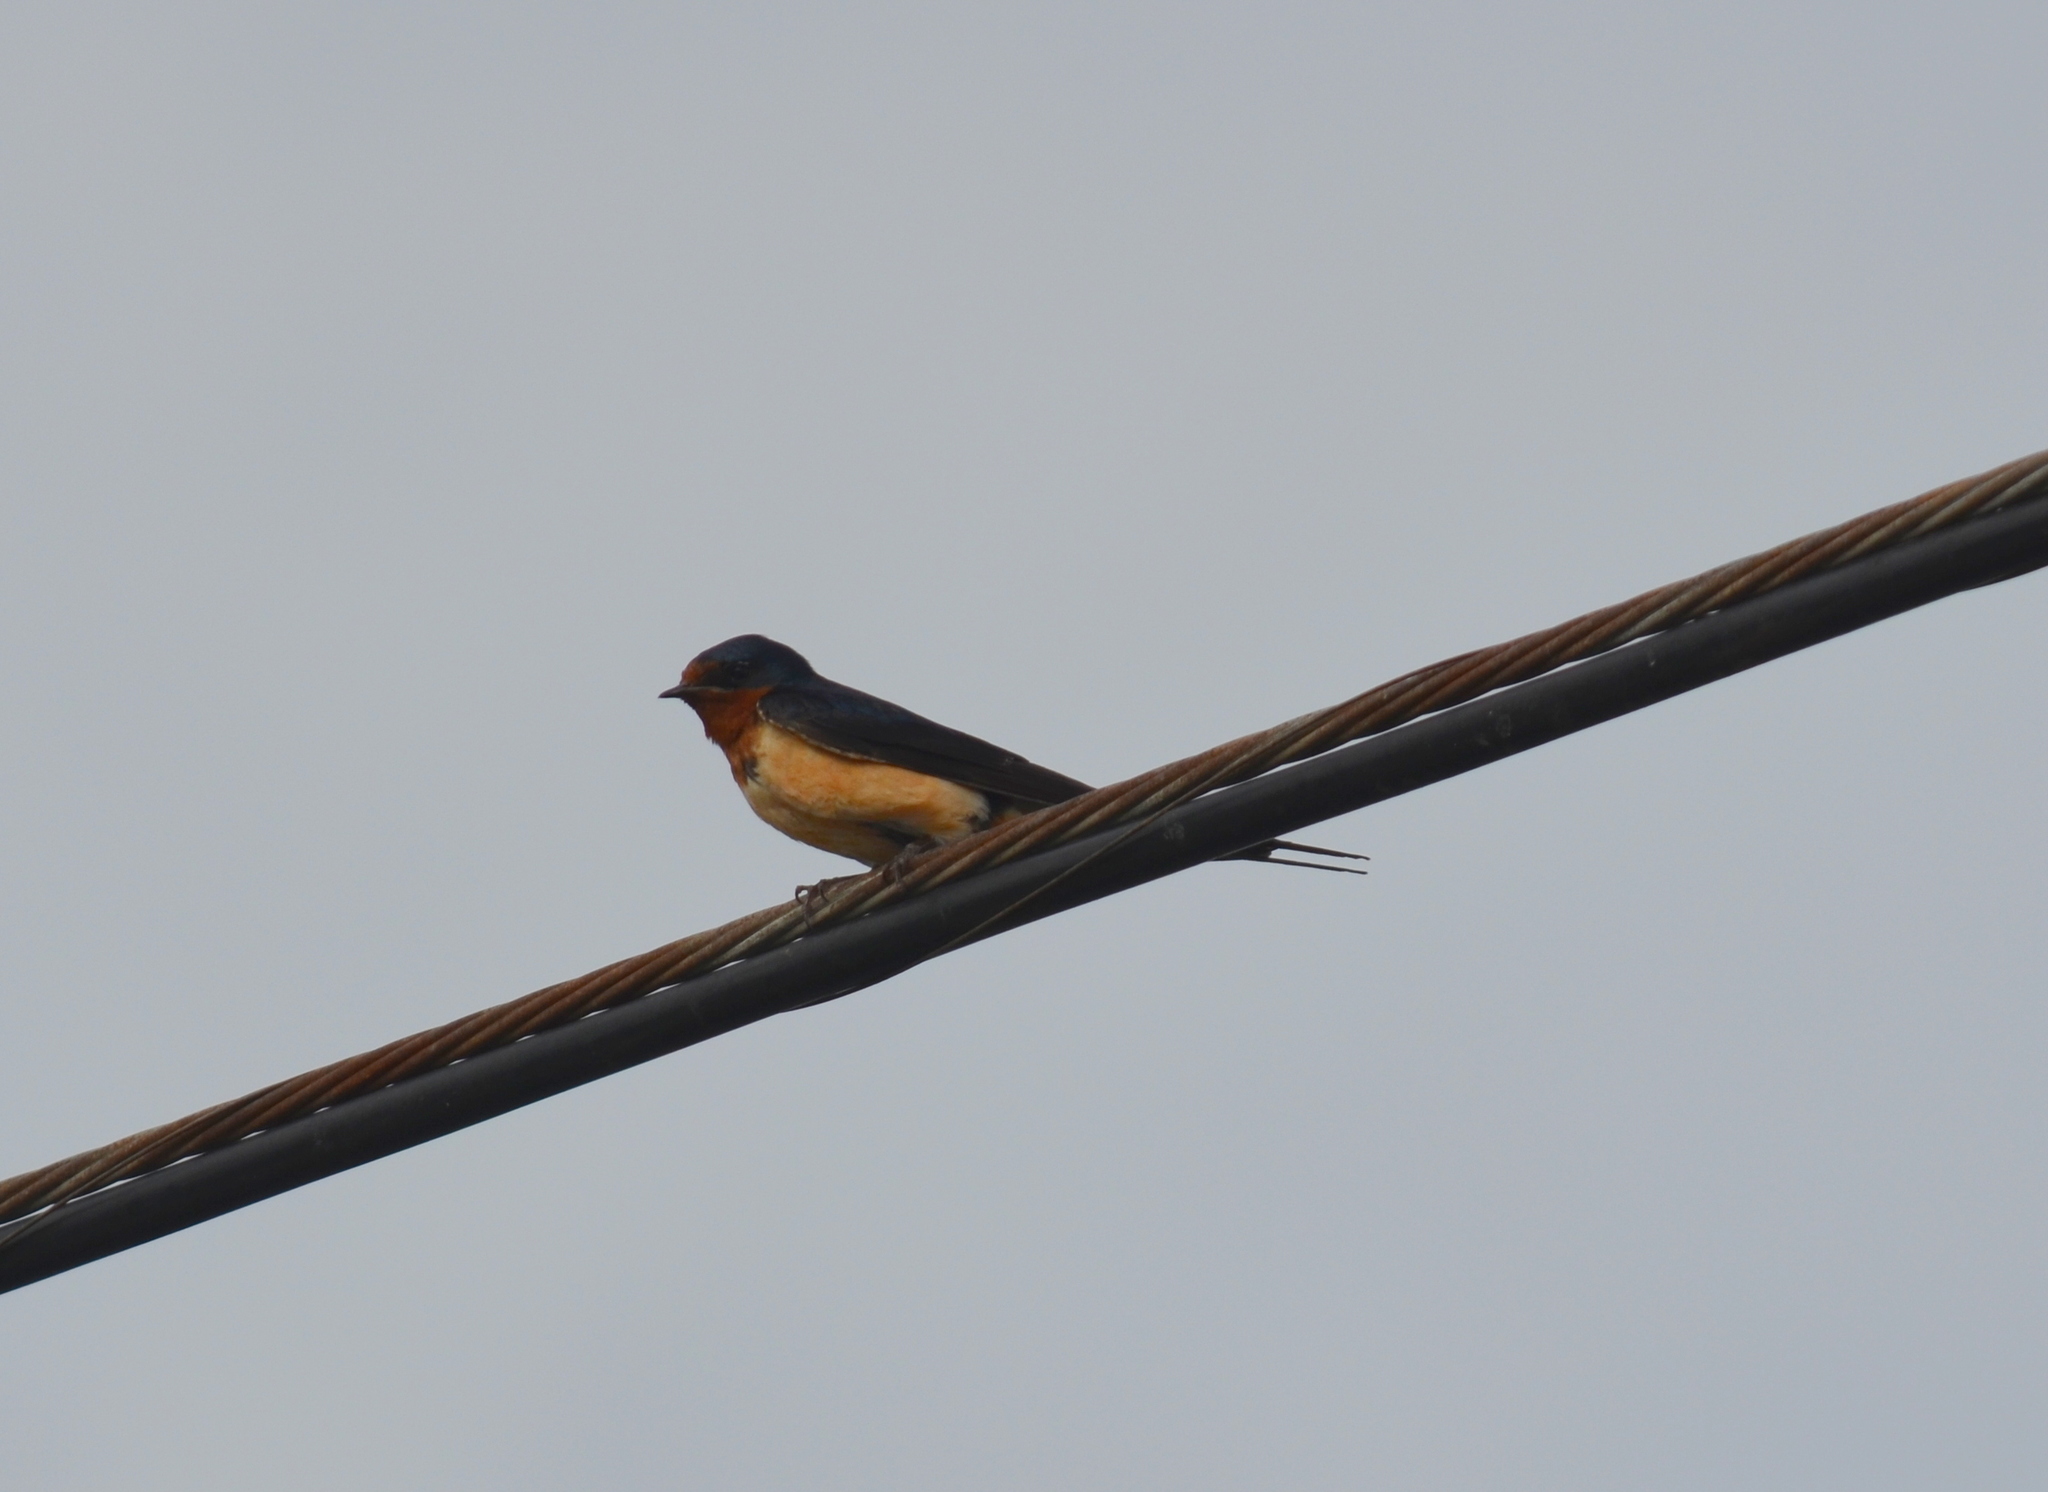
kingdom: Animalia
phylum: Chordata
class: Aves
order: Passeriformes
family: Hirundinidae
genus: Hirundo
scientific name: Hirundo rustica
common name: Barn swallow
